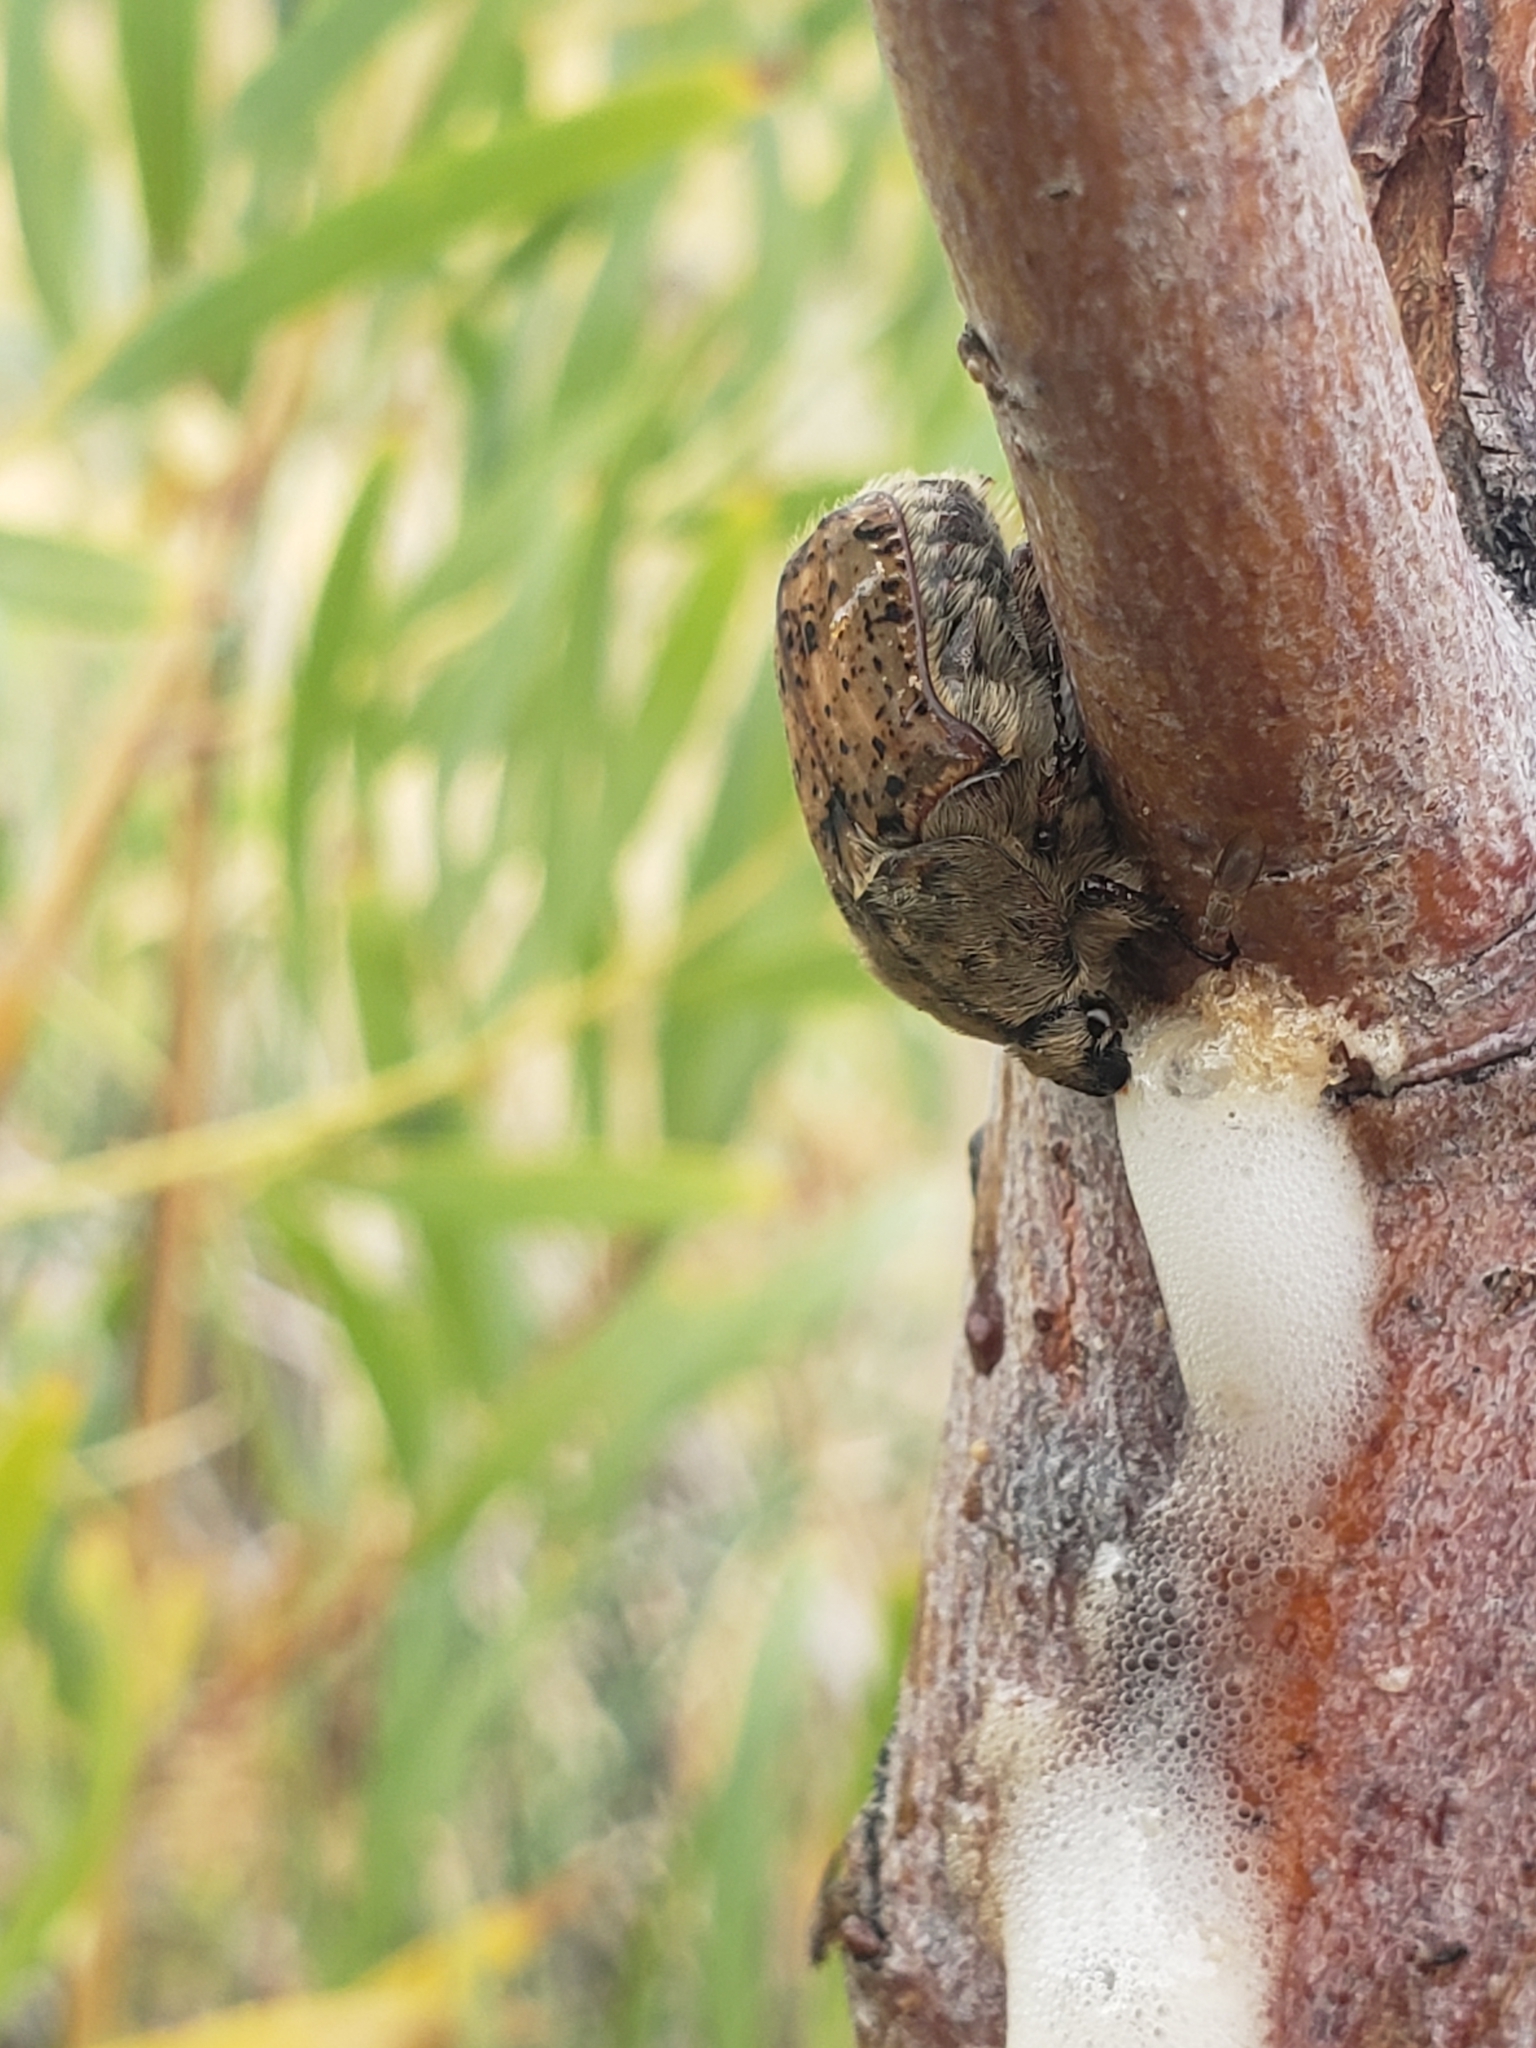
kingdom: Animalia
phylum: Arthropoda
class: Insecta
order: Coleoptera
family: Scarabaeidae
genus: Euphoria
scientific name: Euphoria inda
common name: Bumble flower beetle
